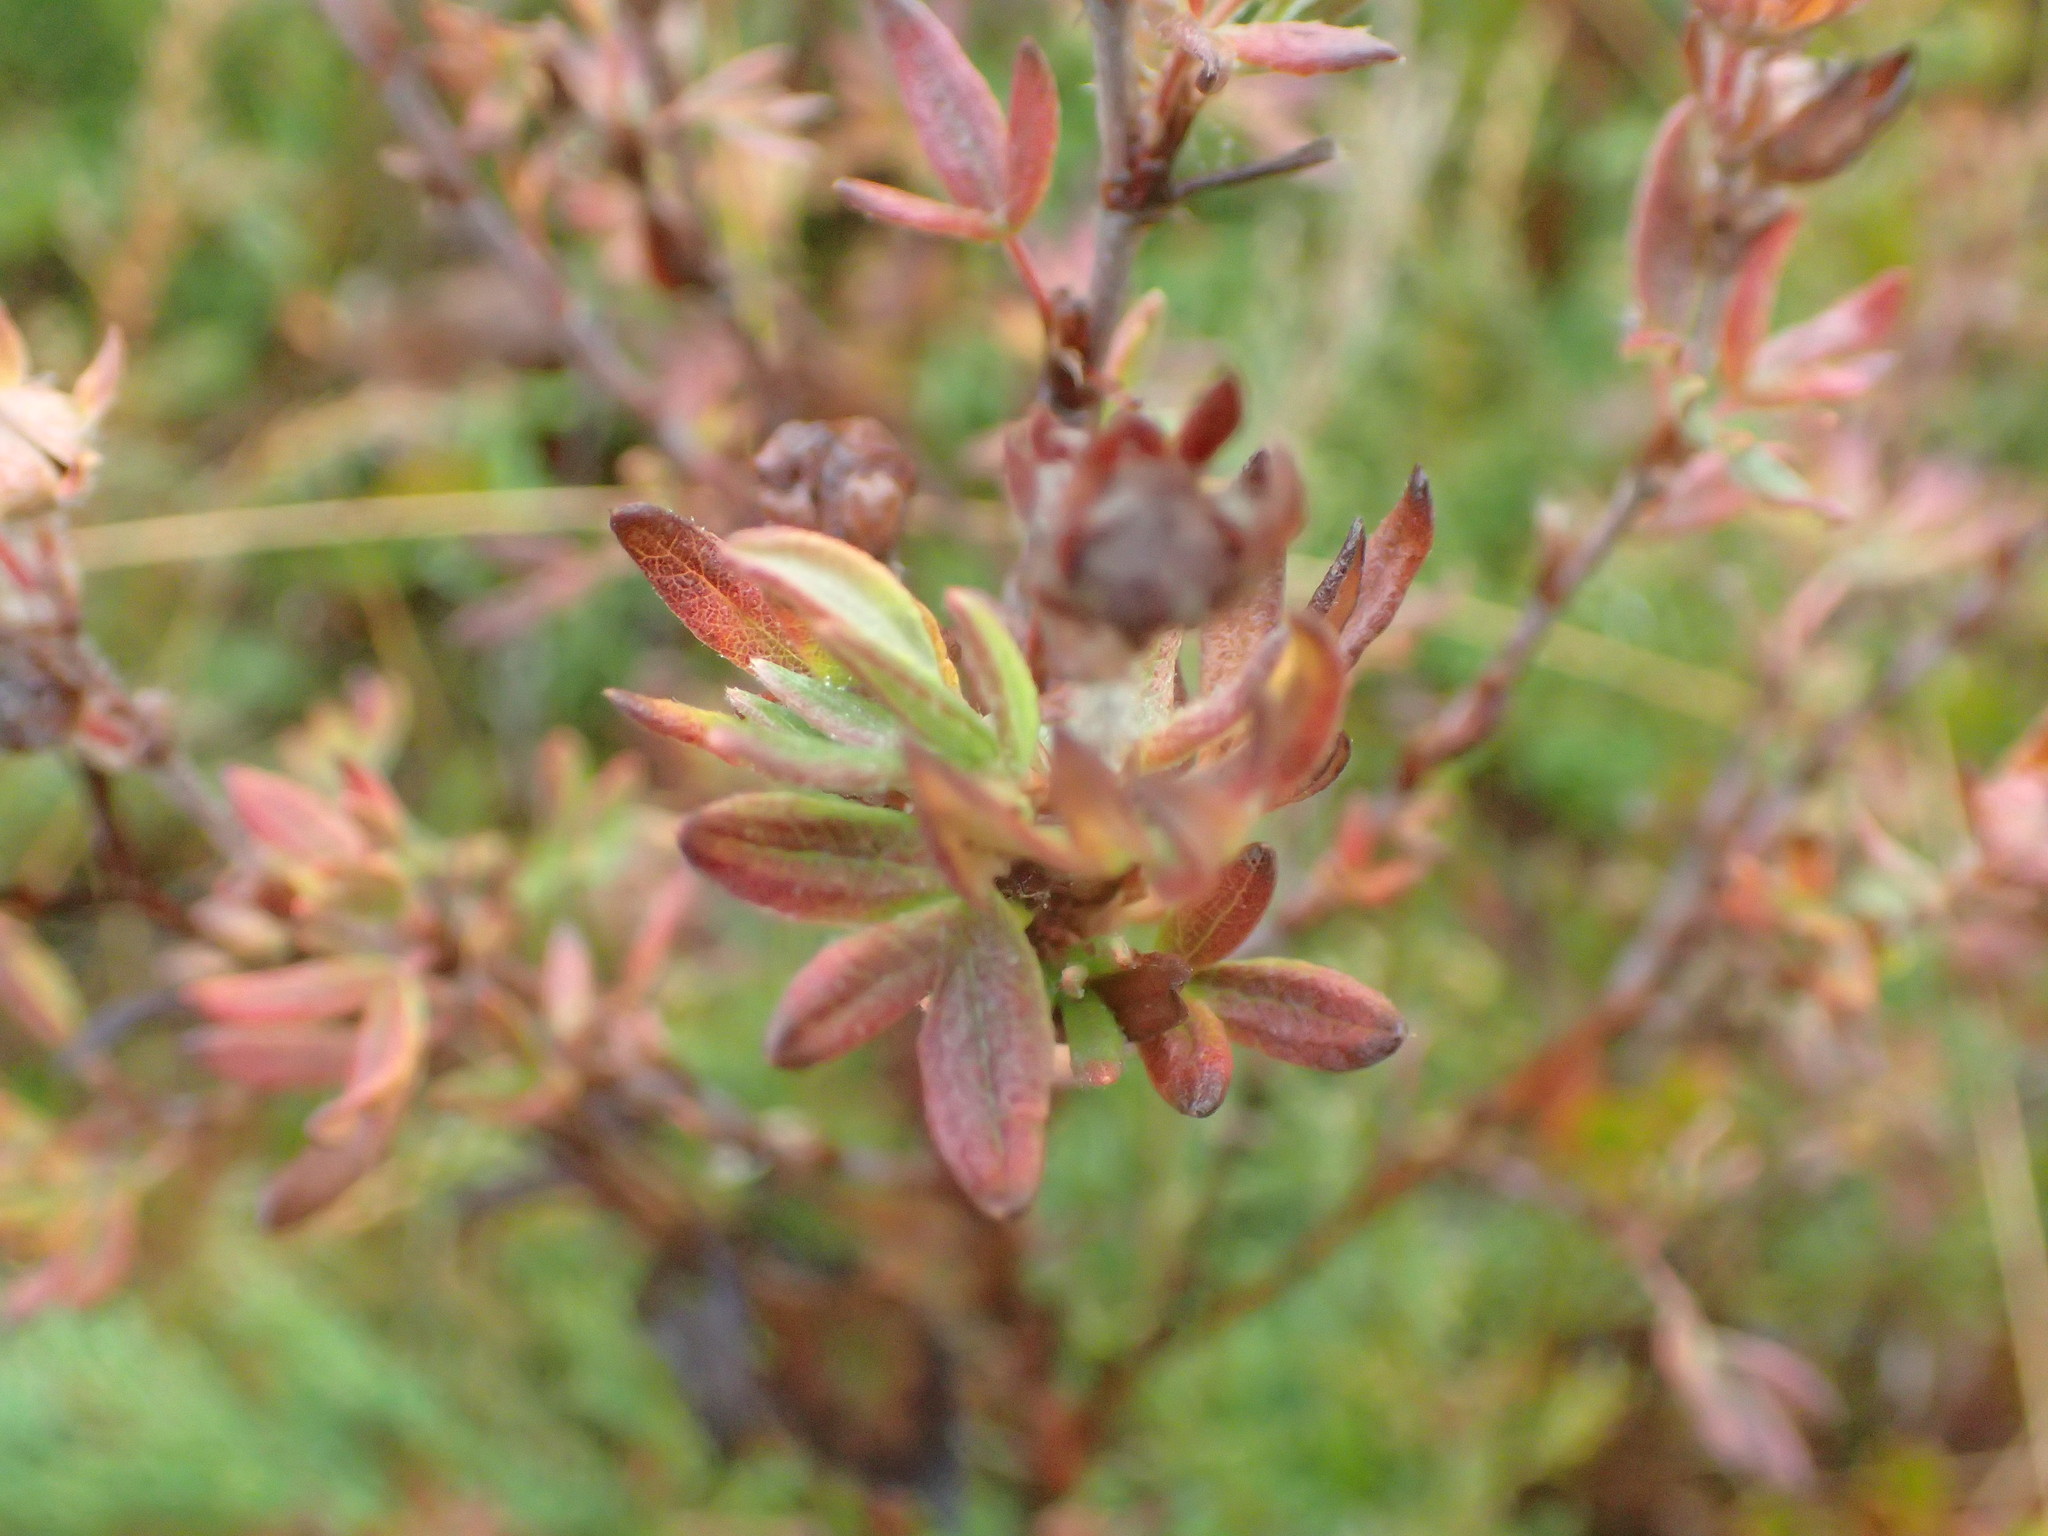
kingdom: Plantae
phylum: Tracheophyta
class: Magnoliopsida
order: Rosales
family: Rosaceae
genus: Dasiphora
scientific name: Dasiphora fruticosa
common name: Shrubby cinquefoil
